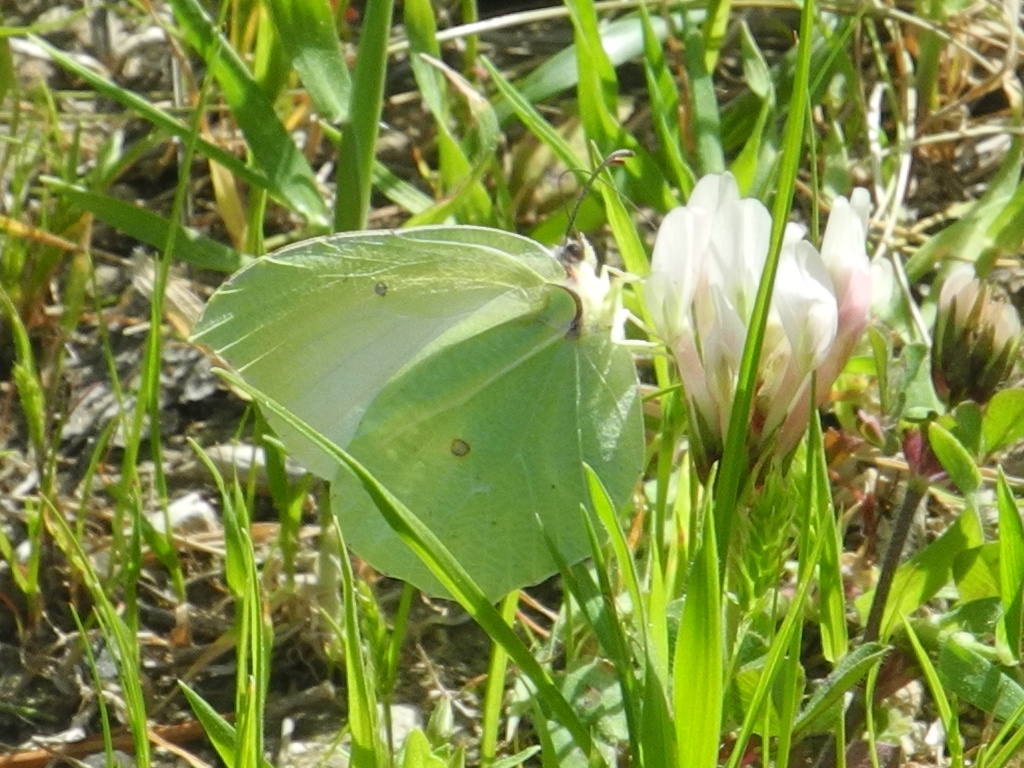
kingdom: Animalia
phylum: Arthropoda
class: Insecta
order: Lepidoptera
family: Pieridae
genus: Gonepteryx
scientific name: Gonepteryx cleopatra
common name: Cleopatra
